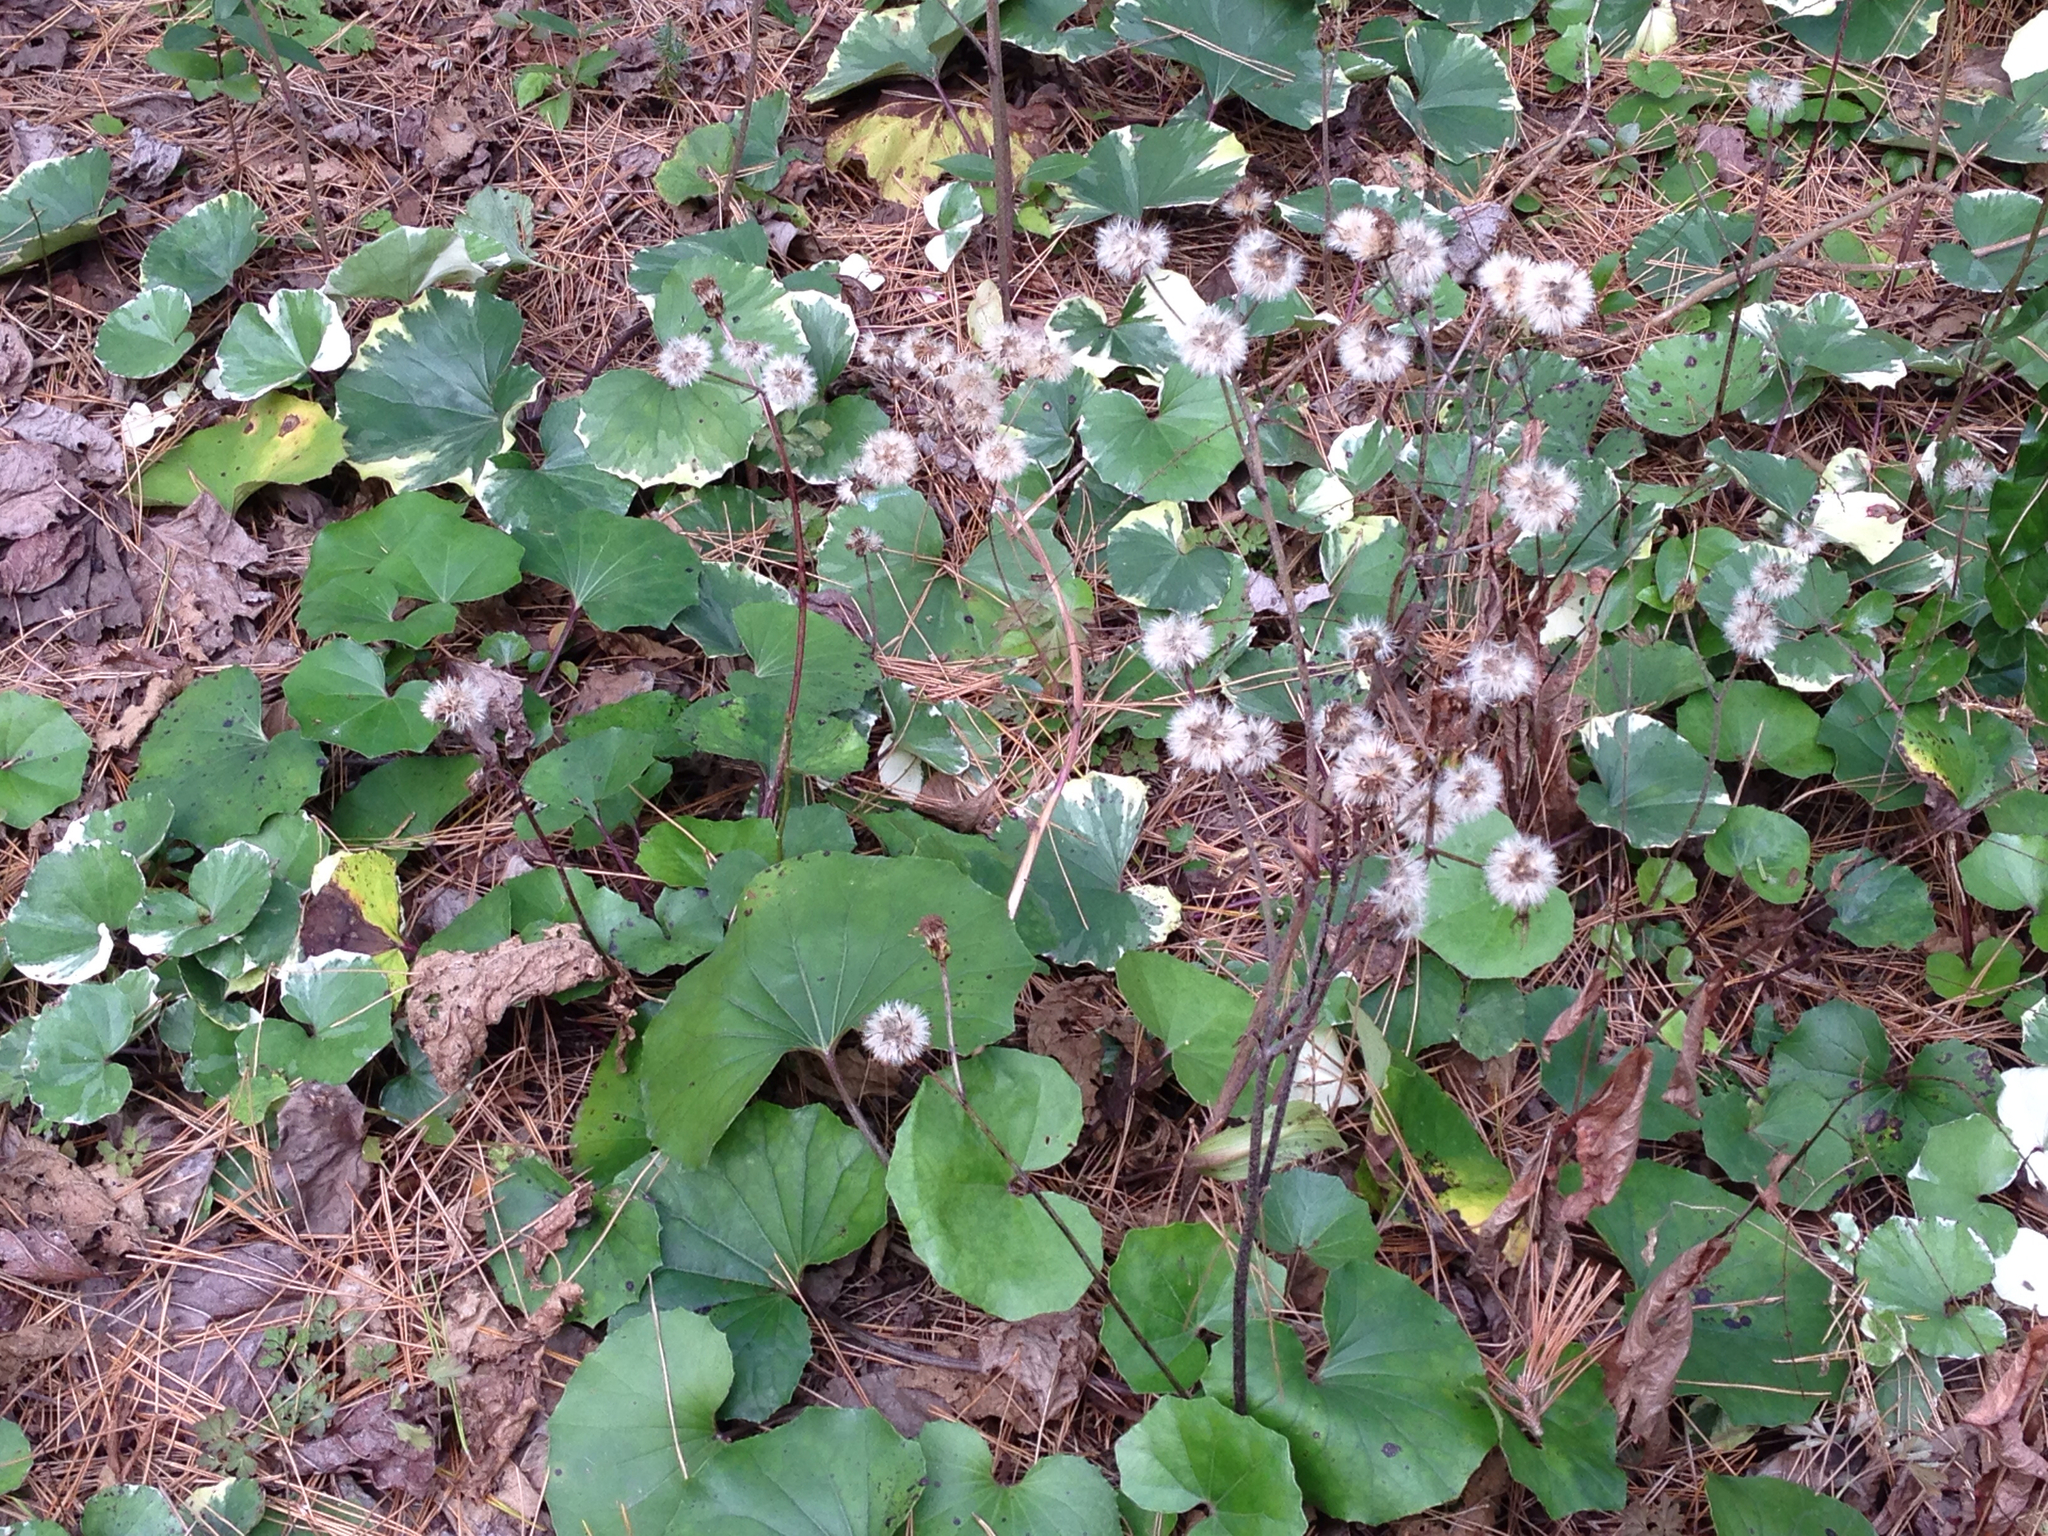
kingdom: Plantae
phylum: Tracheophyta
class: Magnoliopsida
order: Asterales
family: Asteraceae
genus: Farfugium
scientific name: Farfugium japonicum
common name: Leopardplant
